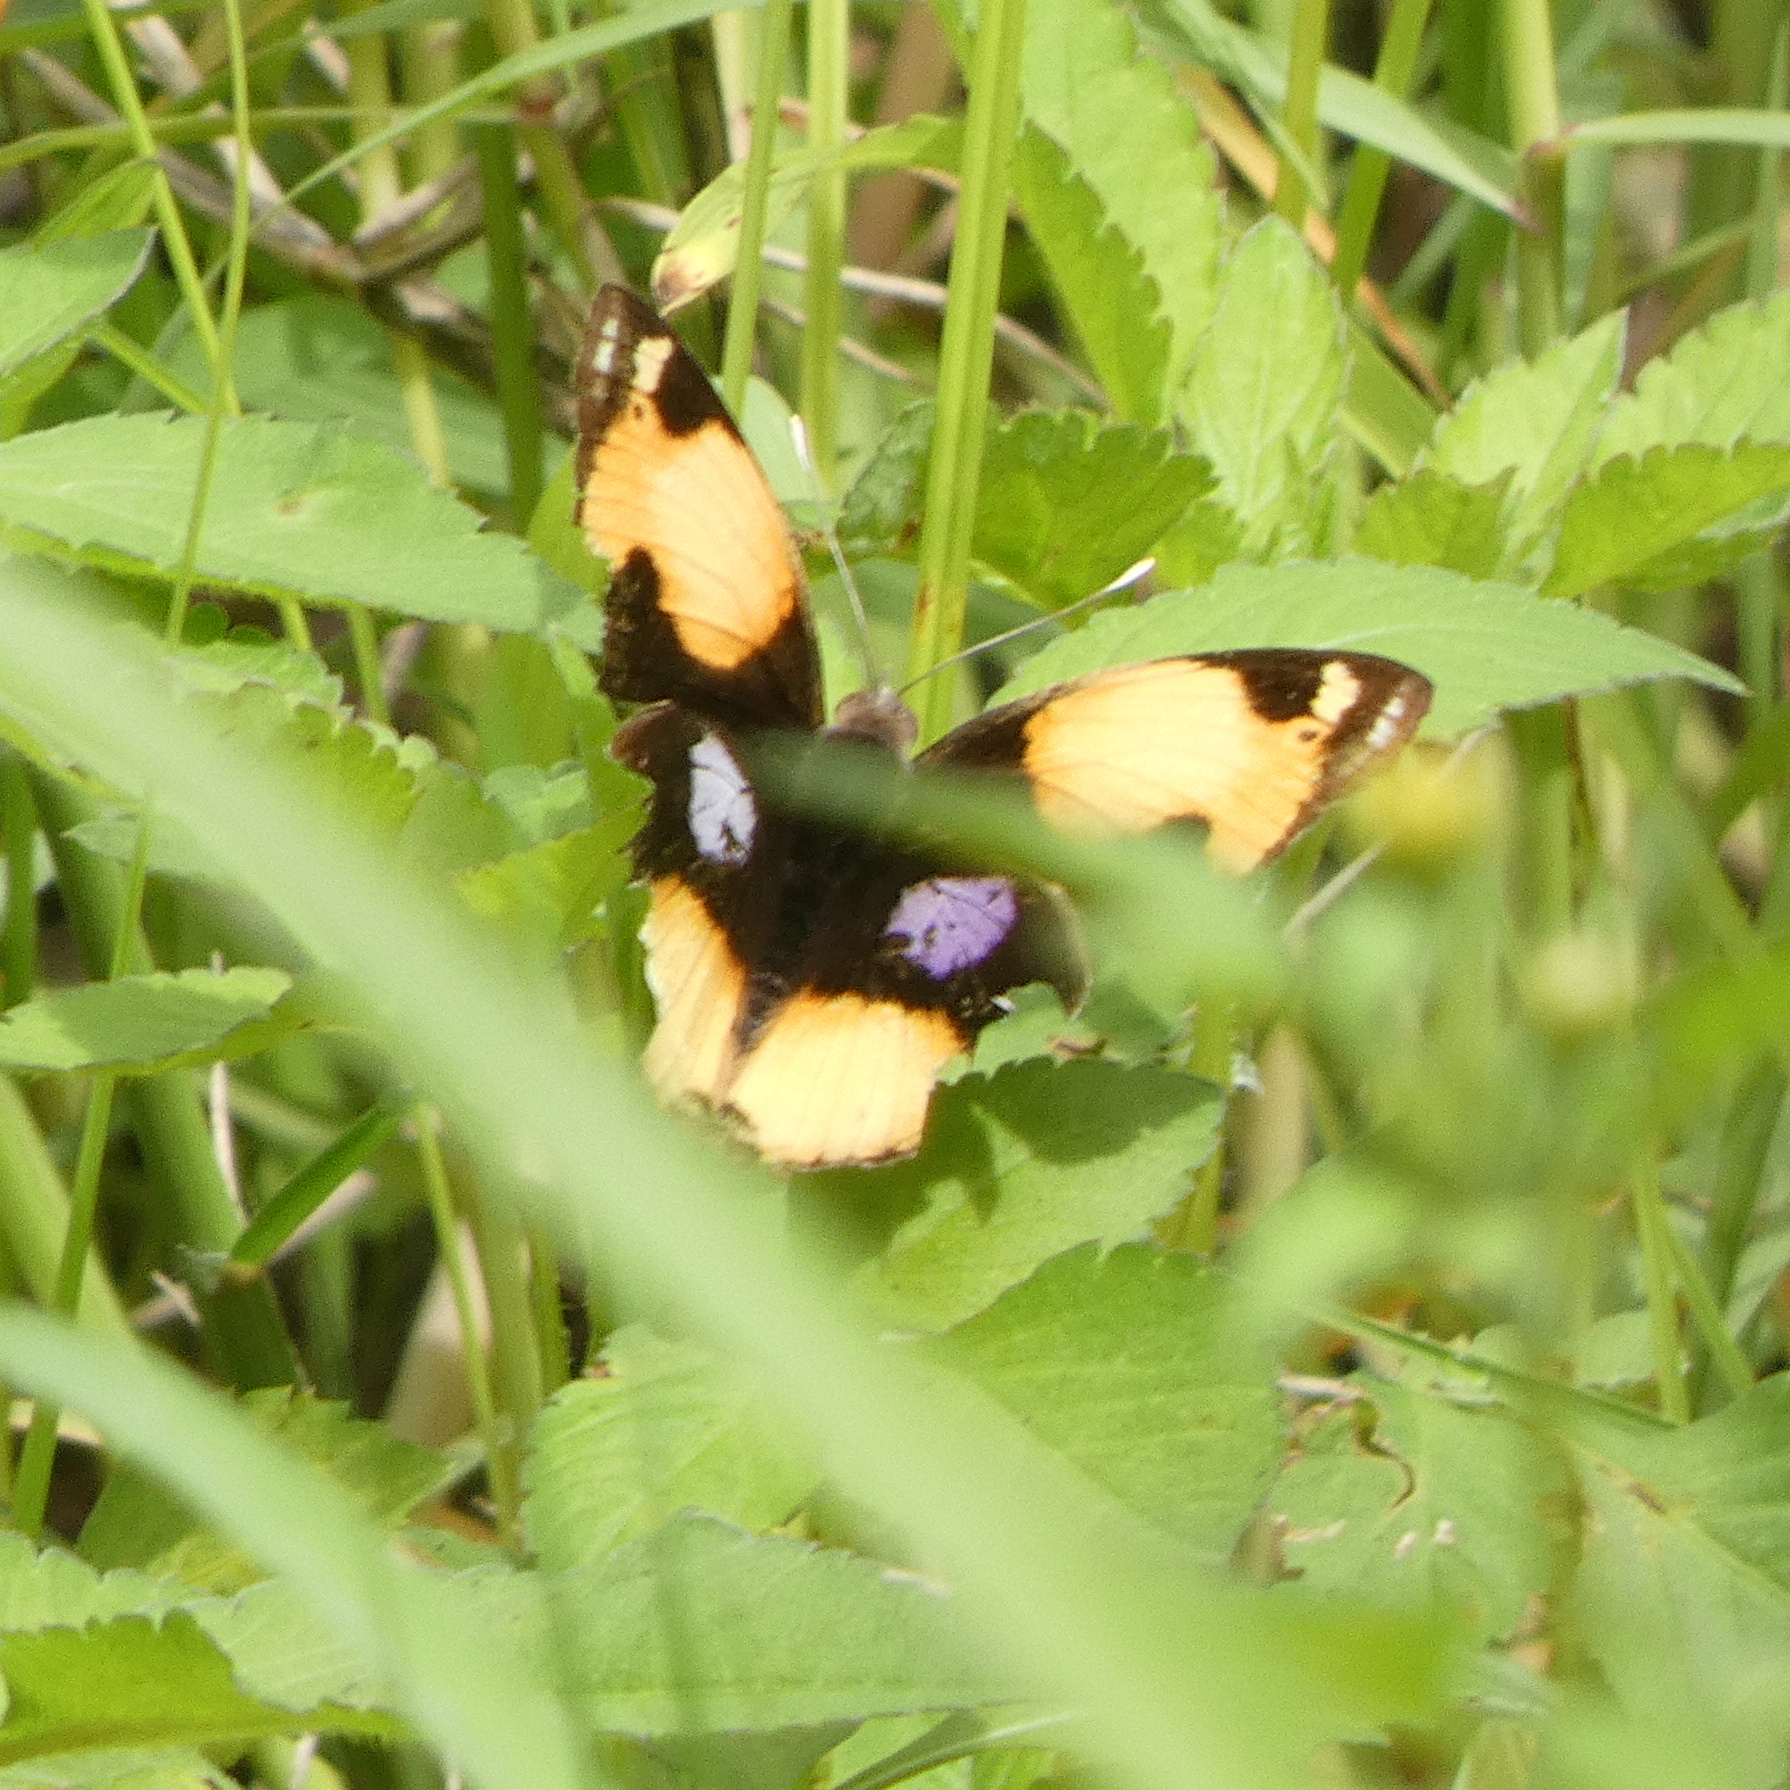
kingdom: Animalia
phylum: Arthropoda
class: Insecta
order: Lepidoptera
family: Nymphalidae
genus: Junonia
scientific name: Junonia hierta
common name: Yellow pansy
